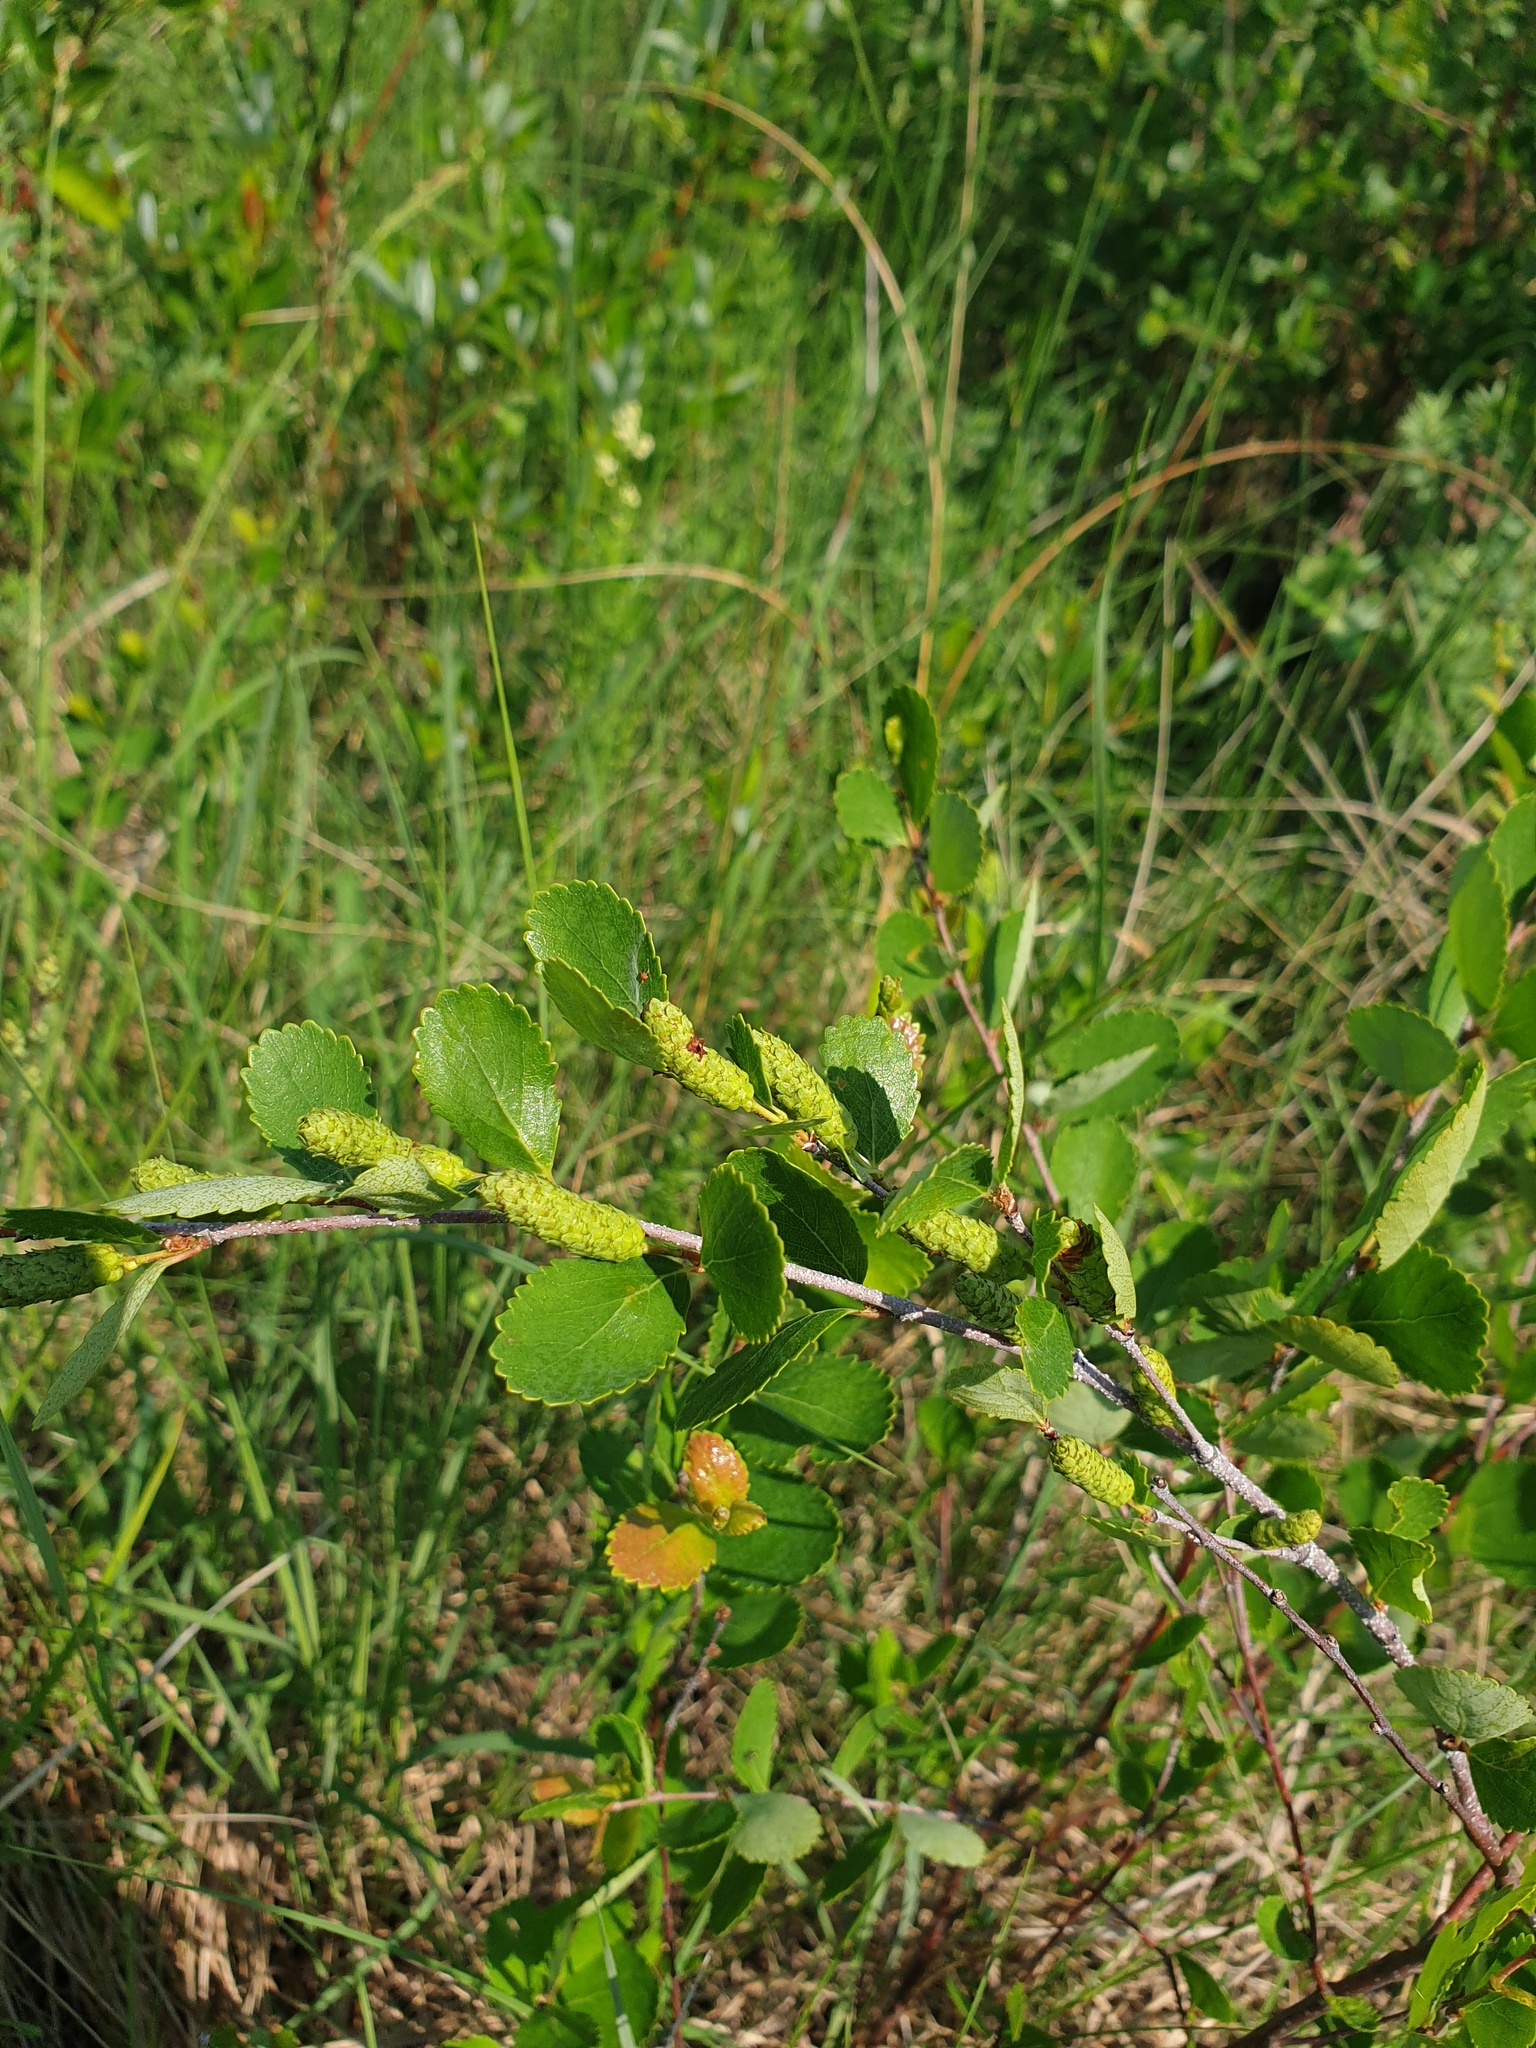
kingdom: Plantae
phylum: Tracheophyta
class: Magnoliopsida
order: Fagales
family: Betulaceae
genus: Betula
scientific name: Betula pumila
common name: Bog birch
